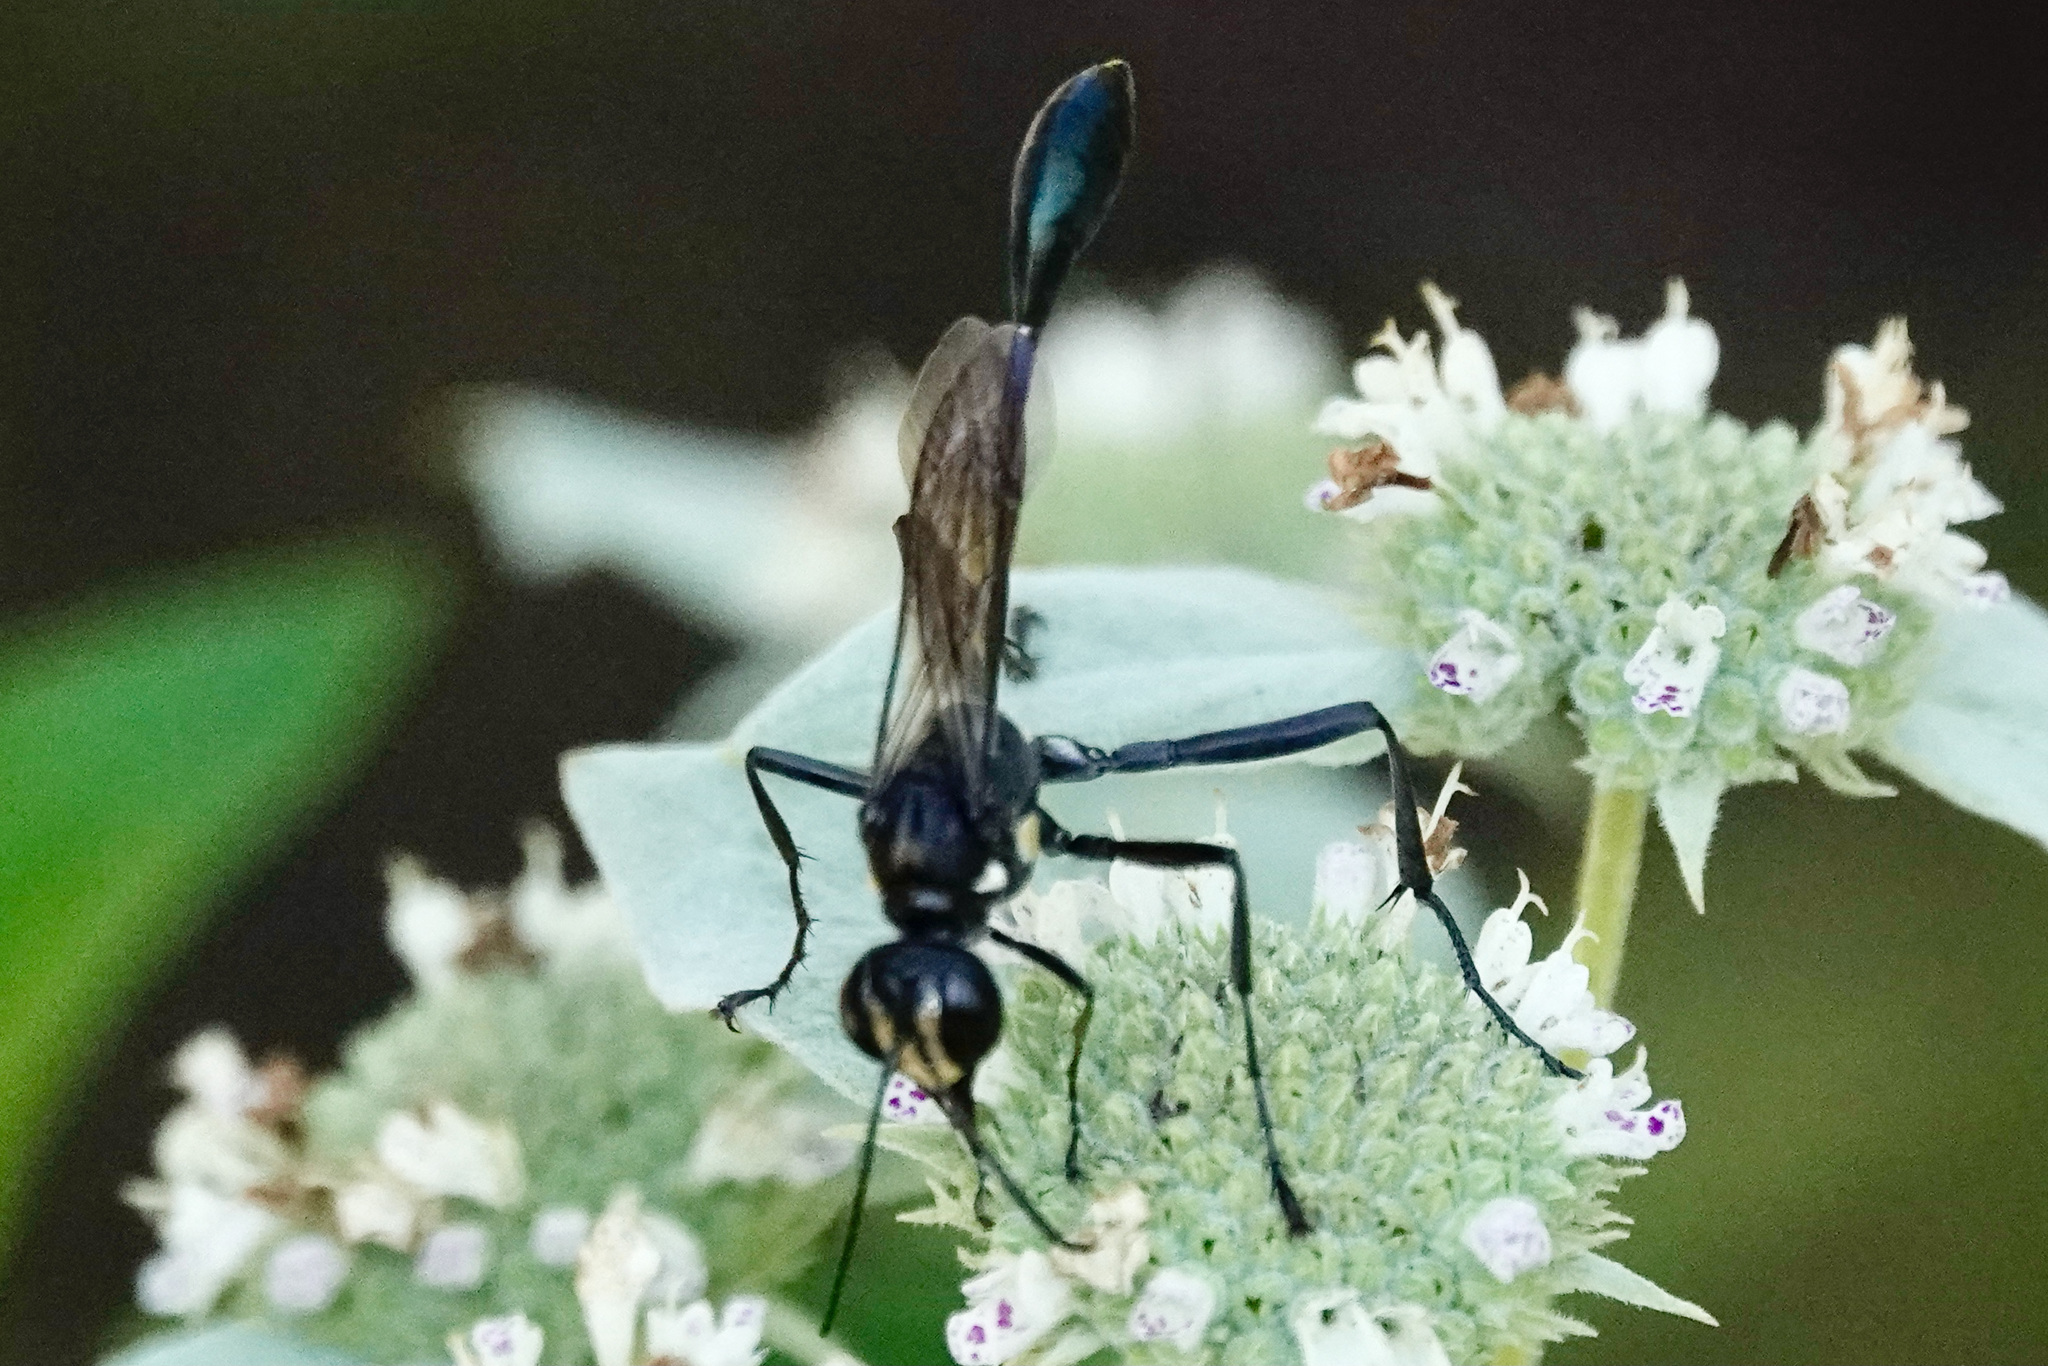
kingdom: Animalia
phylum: Arthropoda
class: Insecta
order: Hymenoptera
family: Sphecidae
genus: Eremnophila
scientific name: Eremnophila aureonotata
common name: Gold-marked thread-waisted wasp
